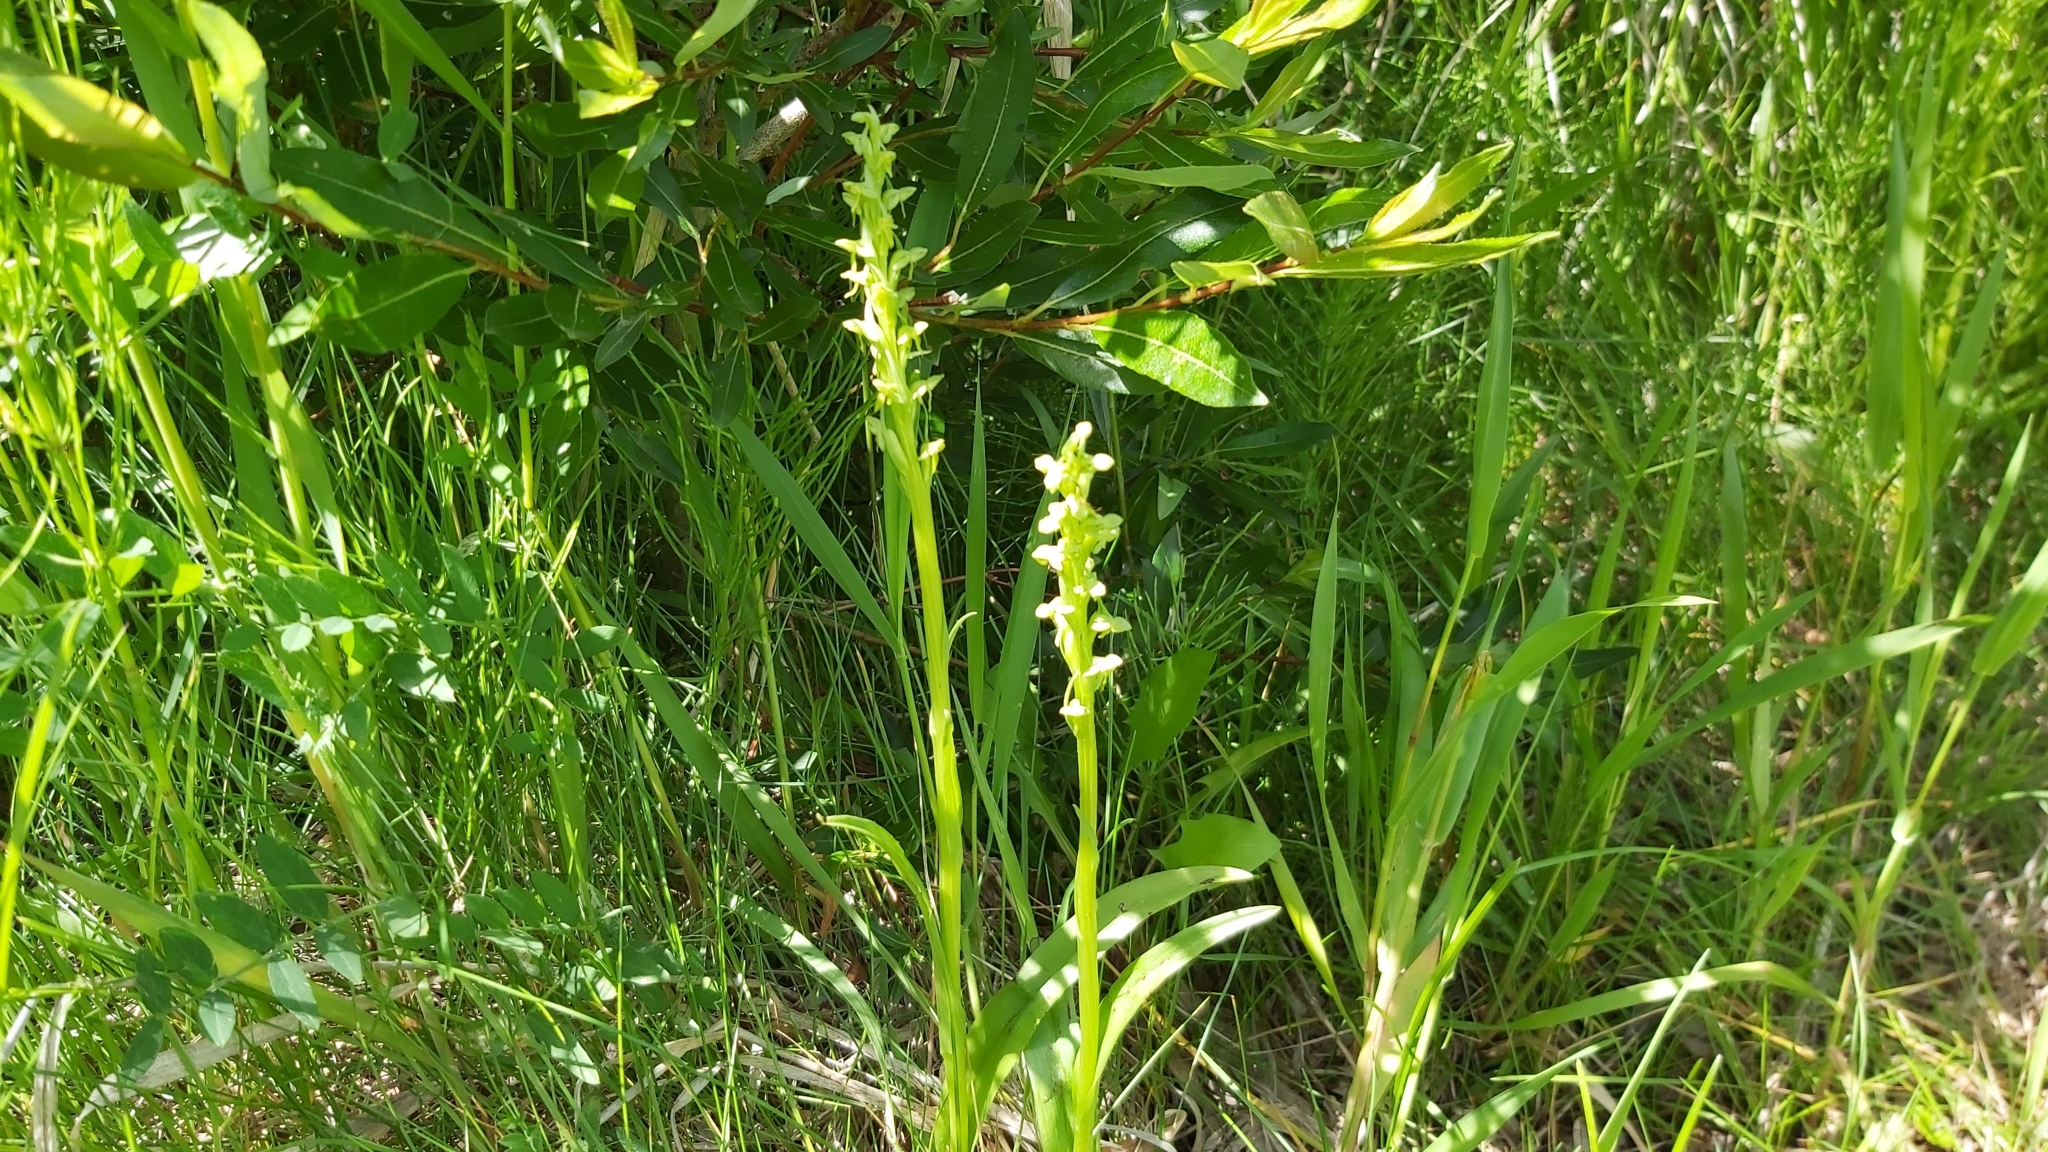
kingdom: Plantae
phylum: Tracheophyta
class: Liliopsida
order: Asparagales
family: Orchidaceae
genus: Platanthera
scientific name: Platanthera aquilonis
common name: Northern green orchid
